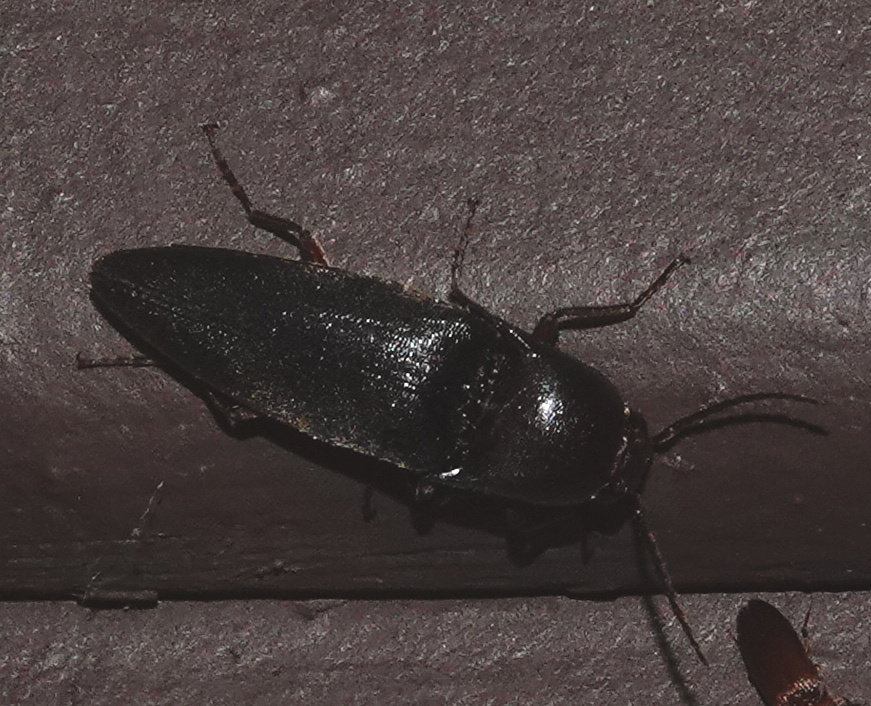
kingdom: Animalia
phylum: Arthropoda
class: Insecta
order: Coleoptera
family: Elateridae
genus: Diplostethus
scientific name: Diplostethus opacicollis
